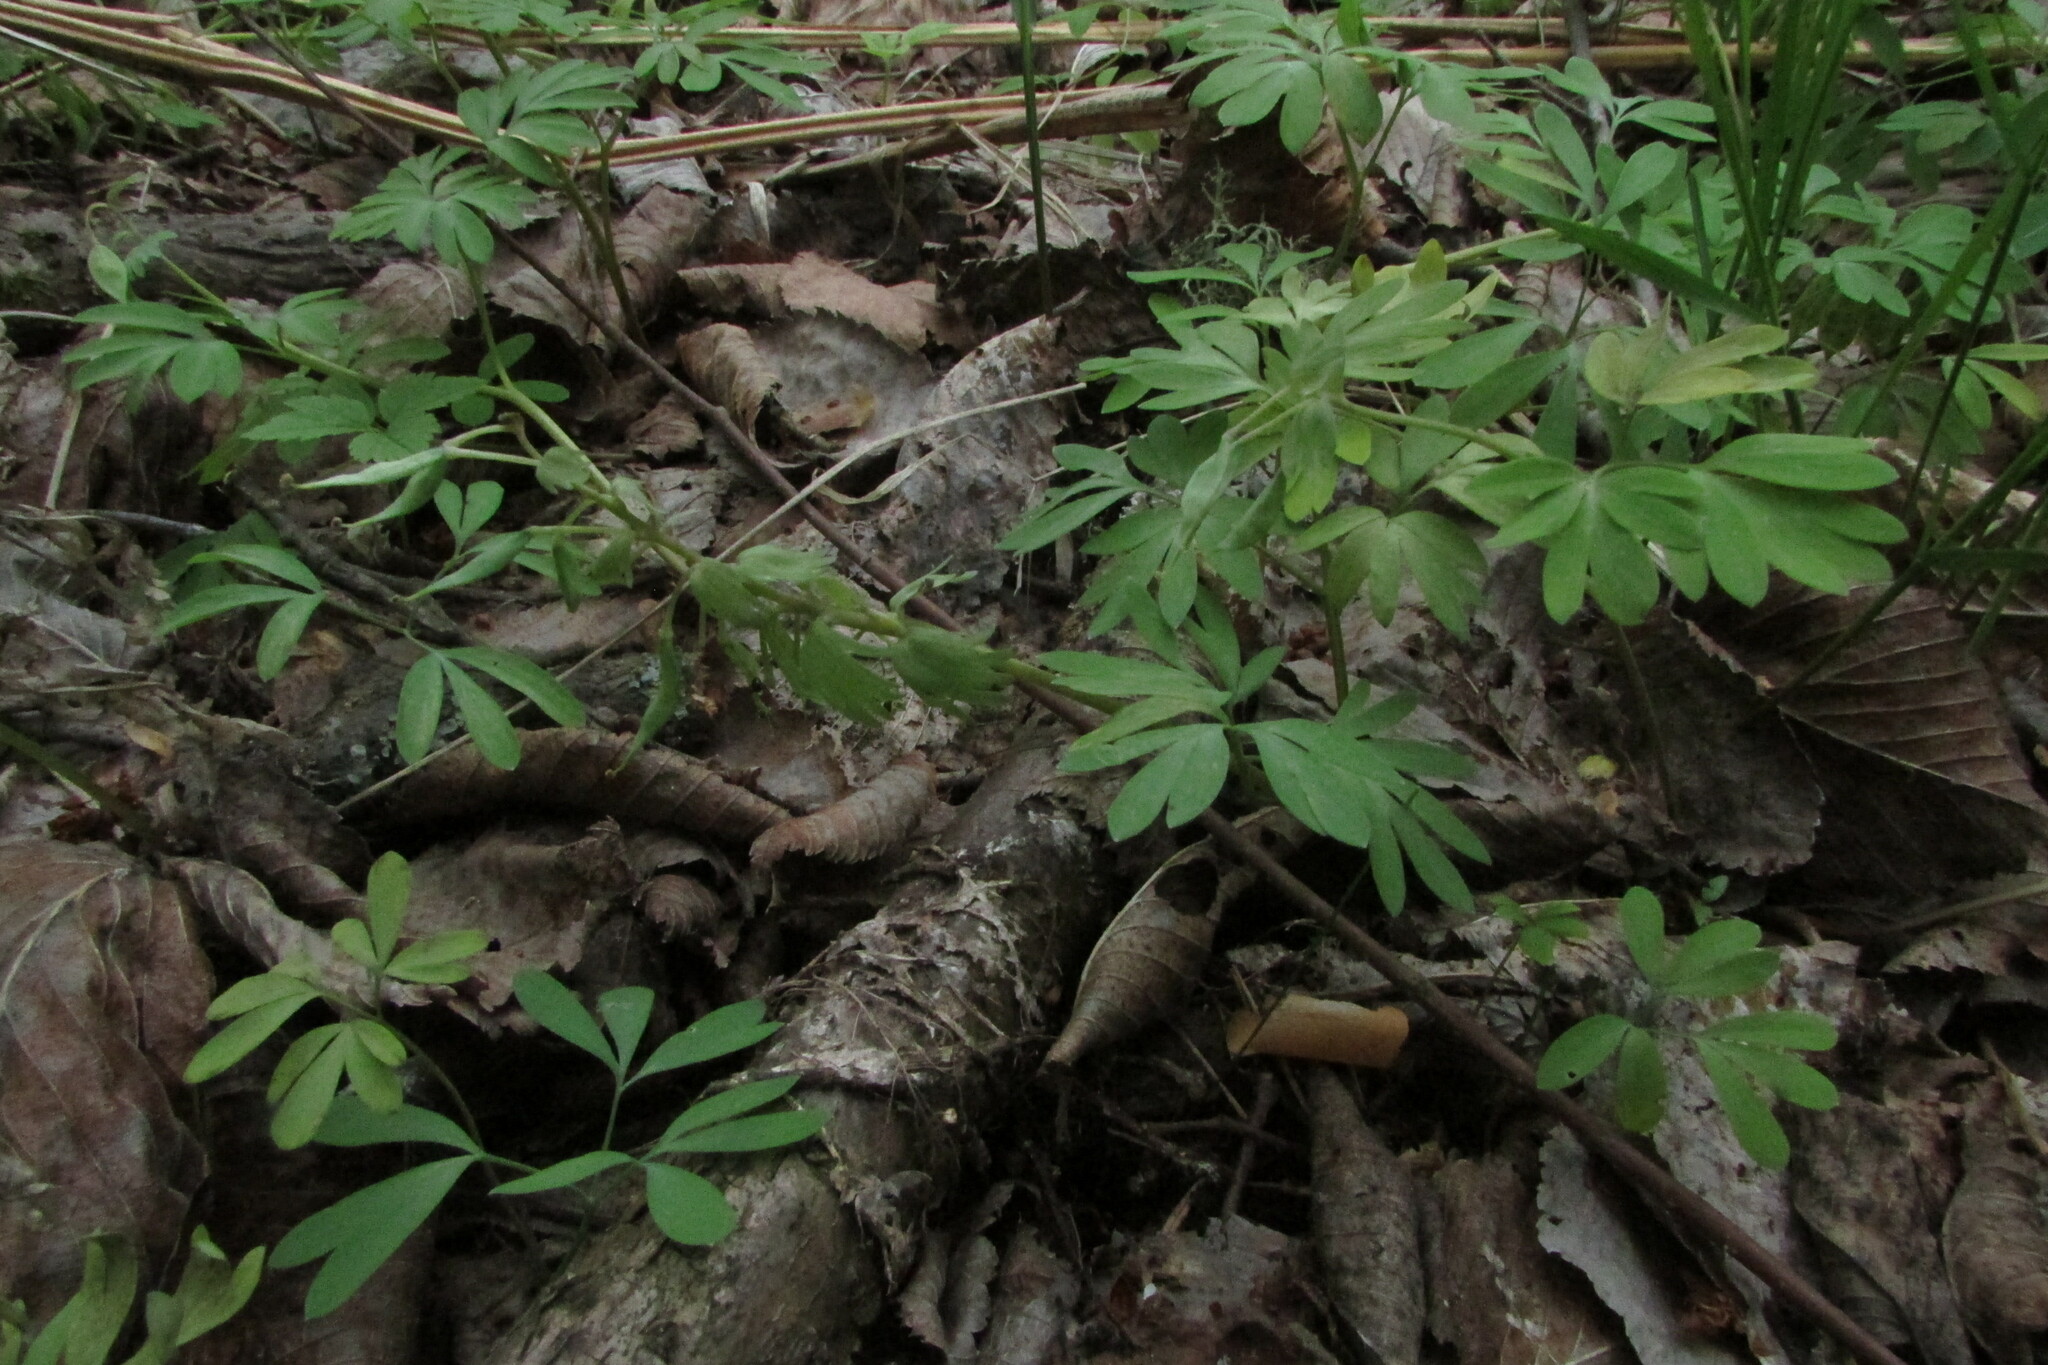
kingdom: Plantae
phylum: Tracheophyta
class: Magnoliopsida
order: Ranunculales
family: Papaveraceae
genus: Corydalis
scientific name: Corydalis solida
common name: Bird-in-a-bush
